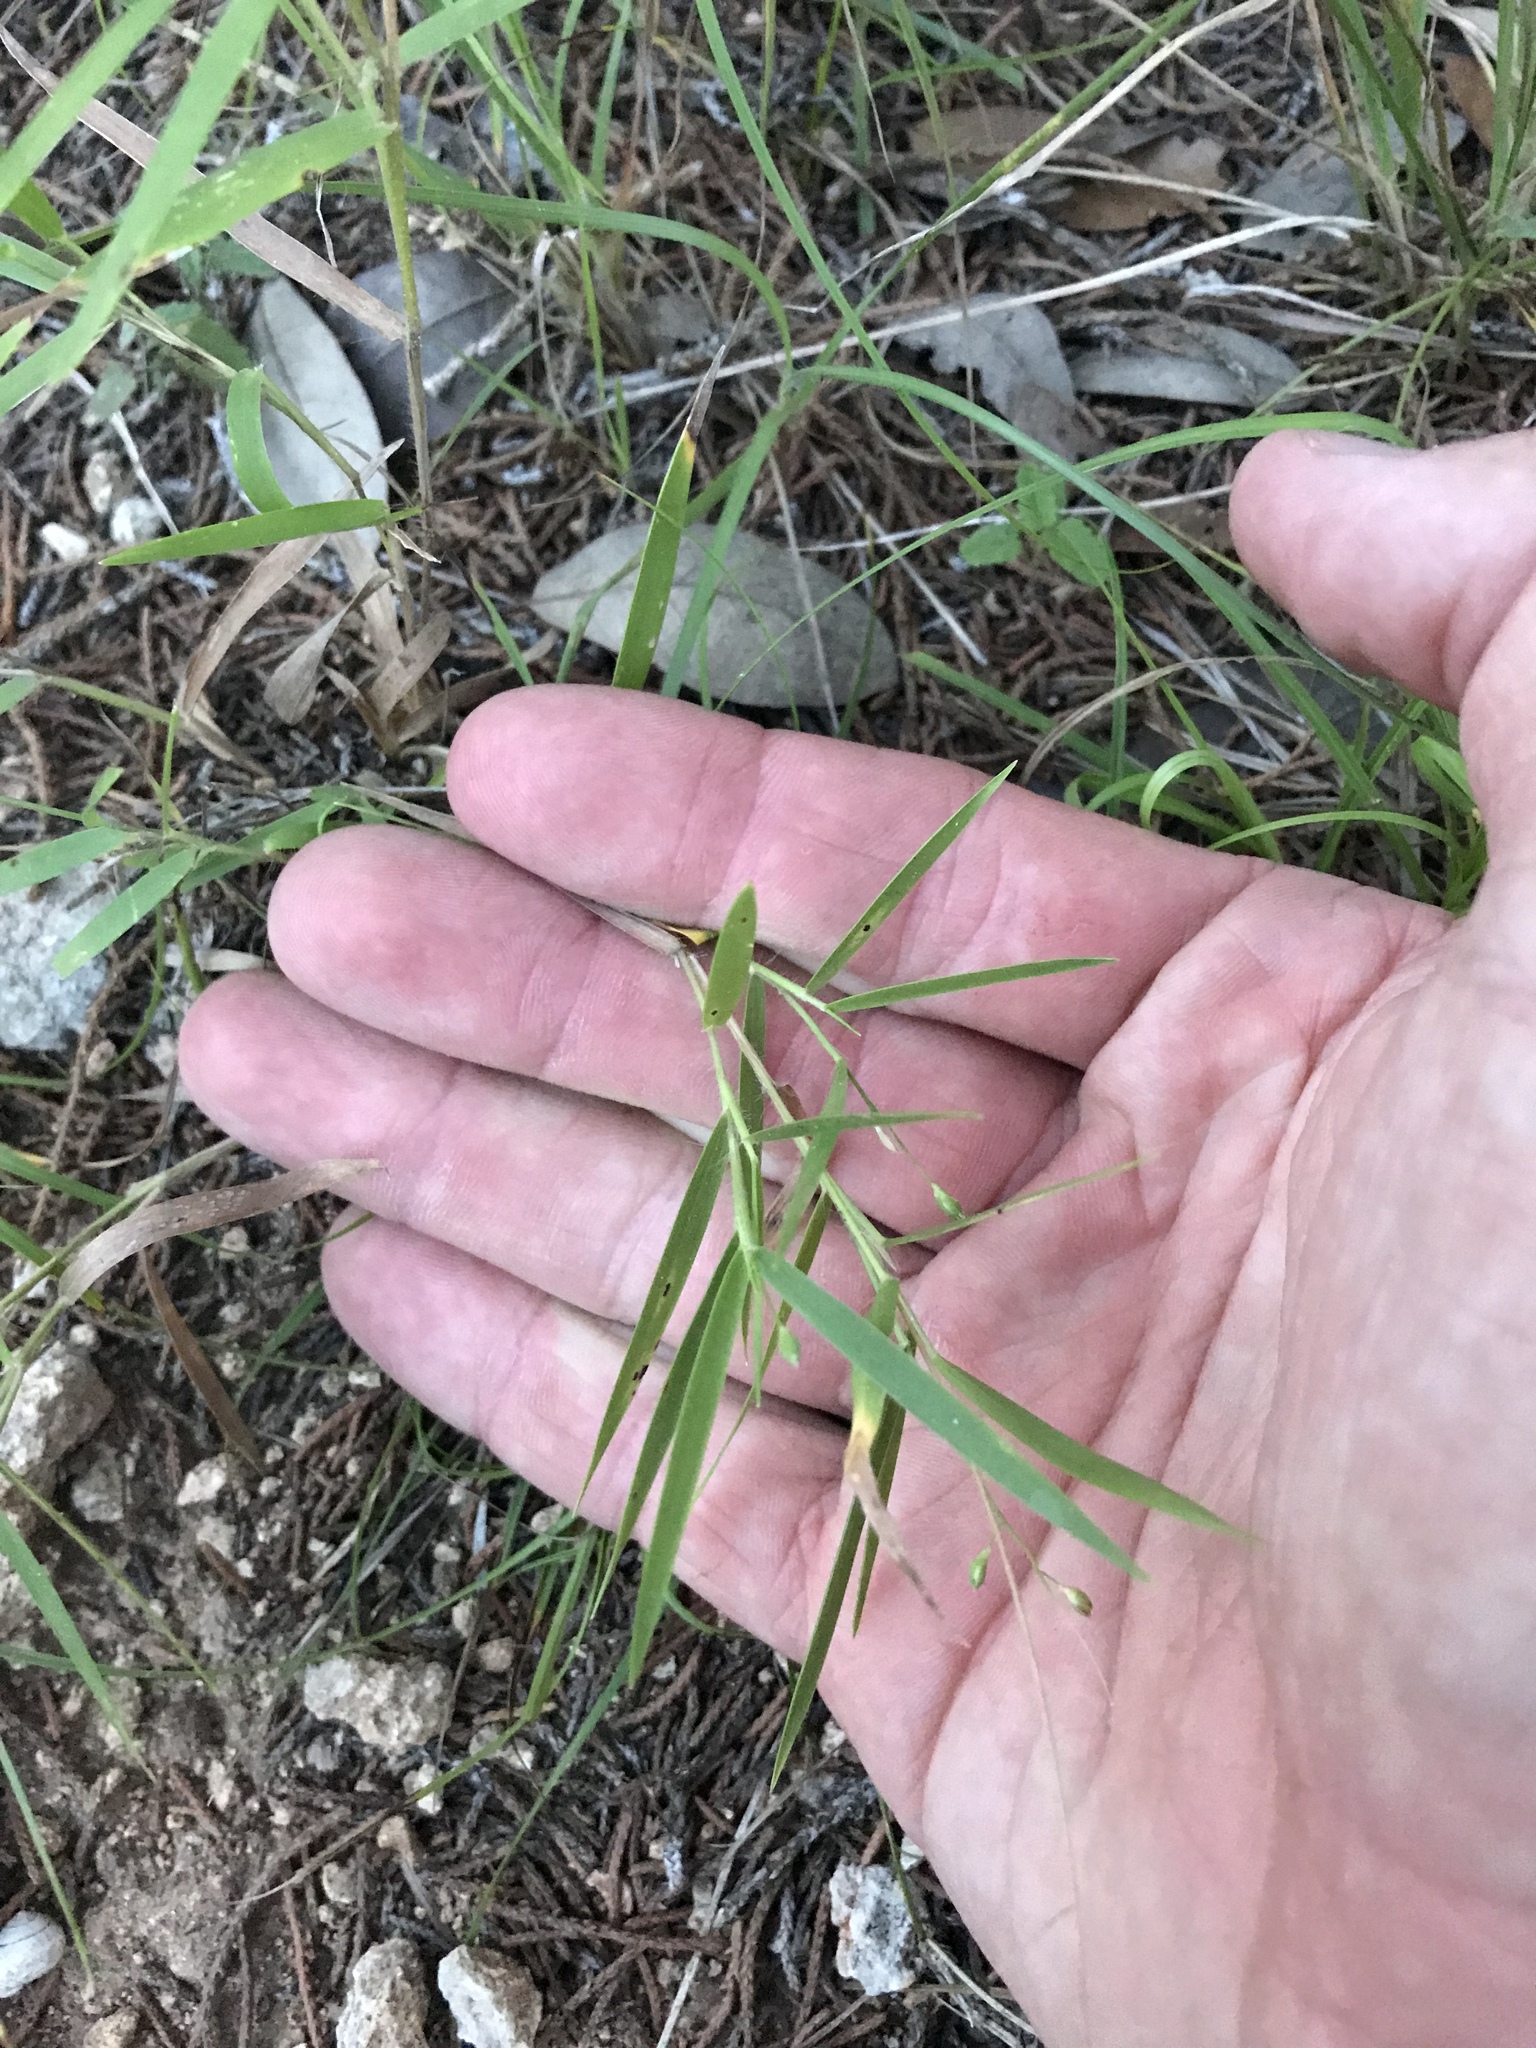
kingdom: Plantae
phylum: Tracheophyta
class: Liliopsida
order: Poales
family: Poaceae
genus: Dichanthelium
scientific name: Dichanthelium oligosanthes
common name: Few-anther obscuregrass
